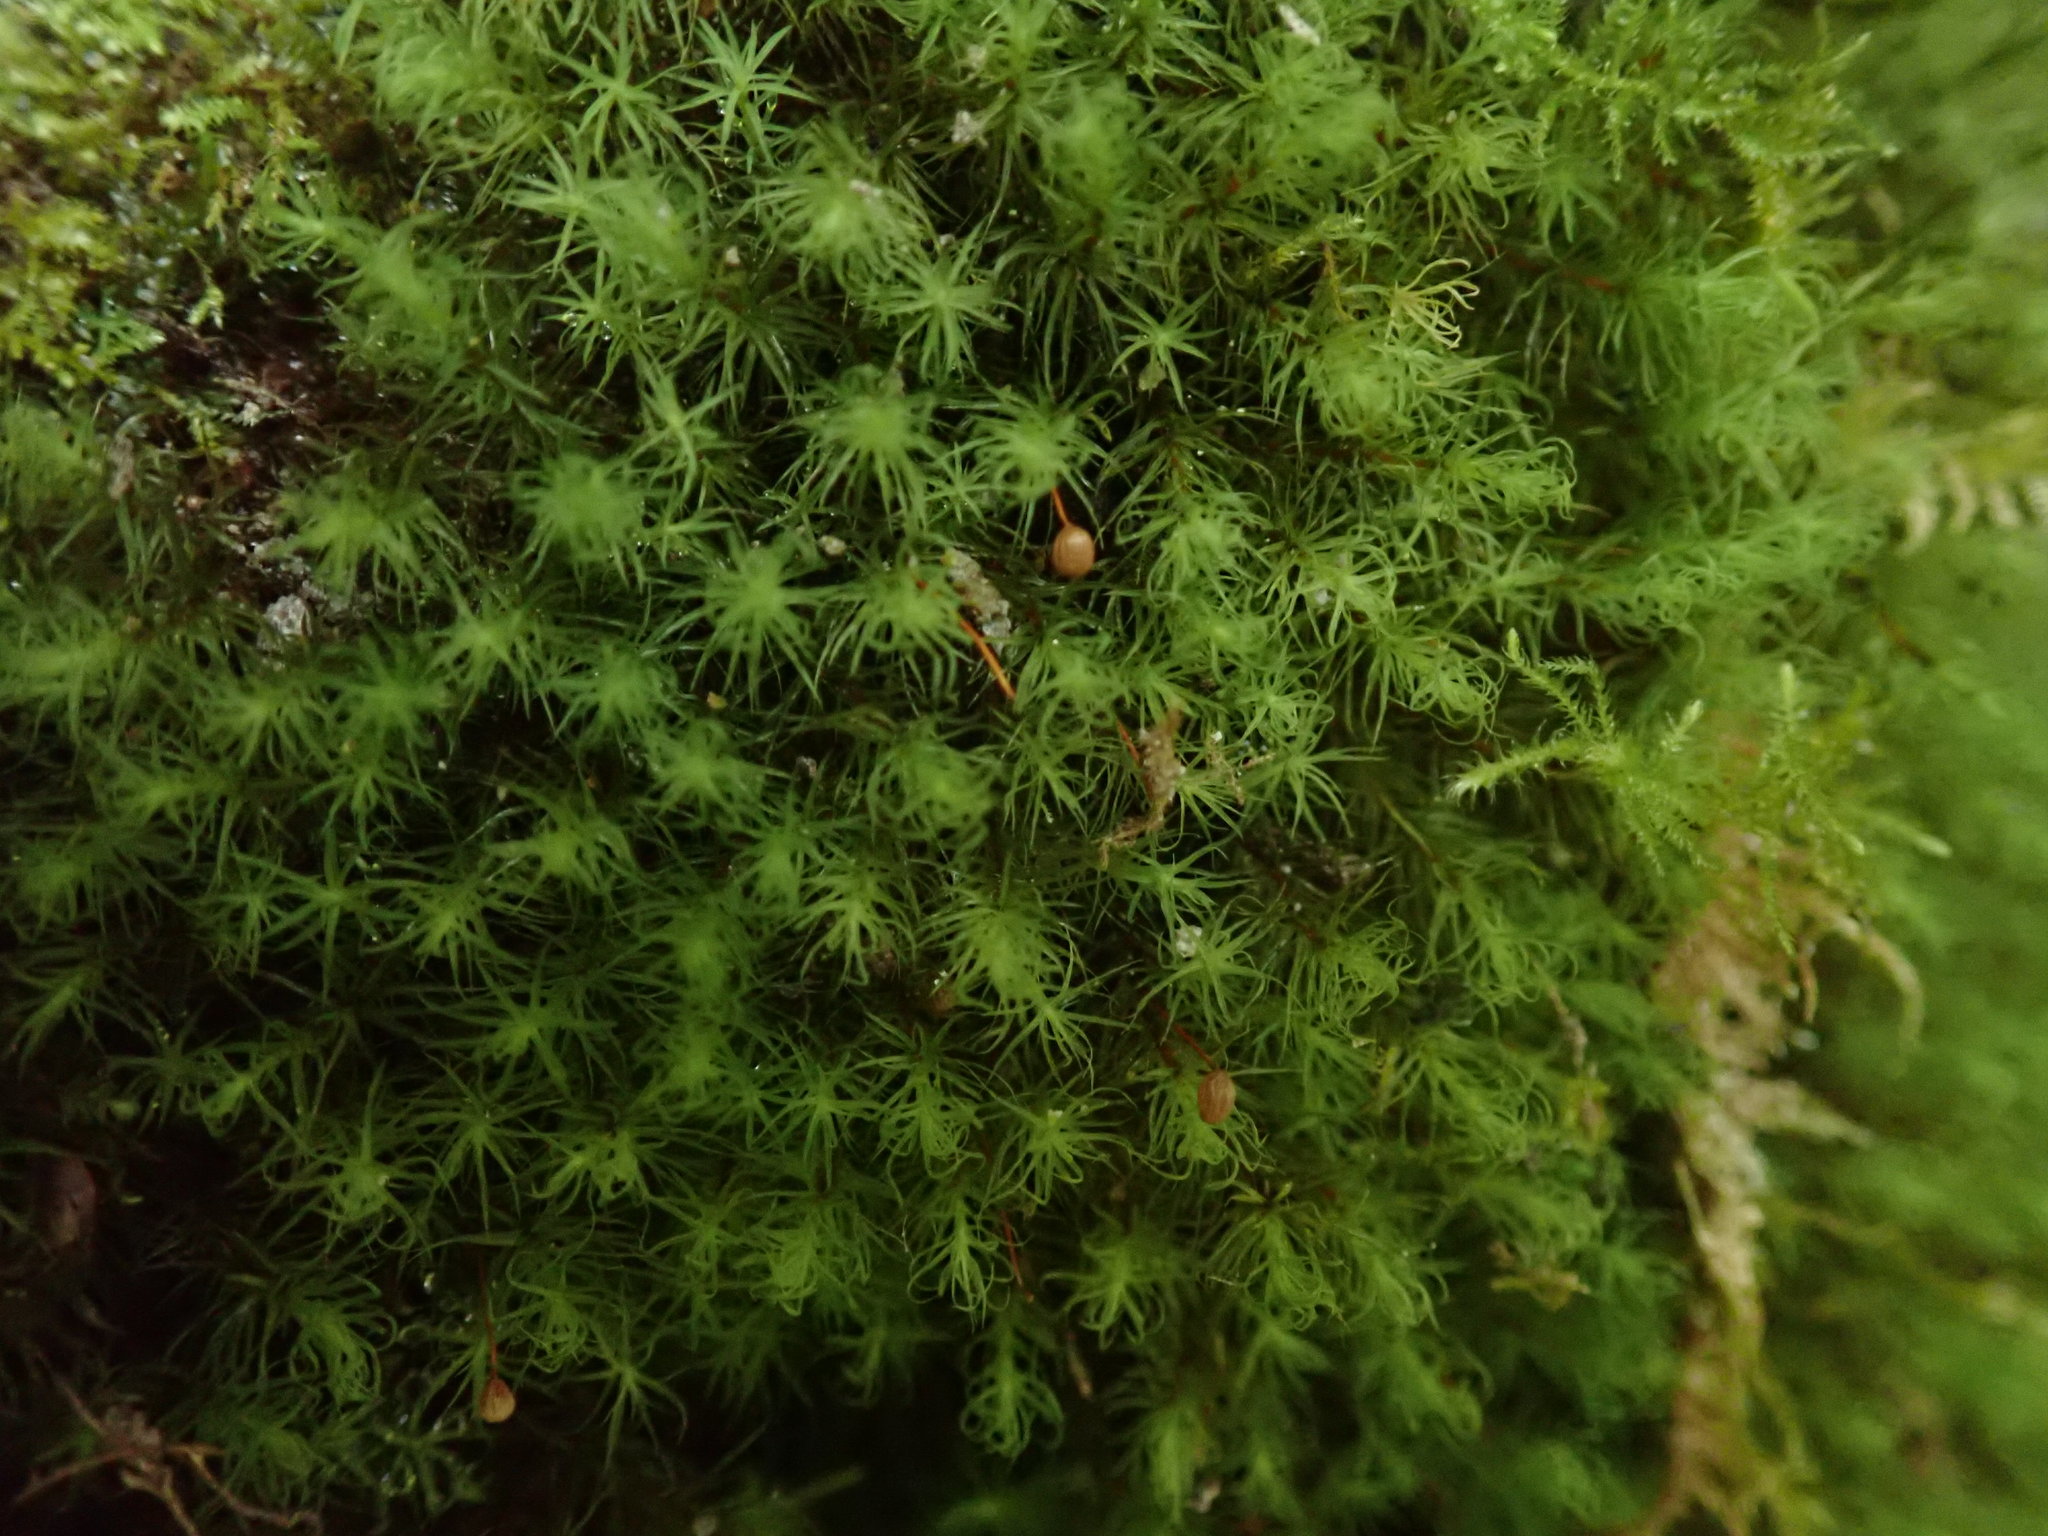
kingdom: Plantae
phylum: Bryophyta
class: Bryopsida
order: Bartramiales
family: Bartramiaceae
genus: Bartramia
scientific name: Bartramia ithyphylla
